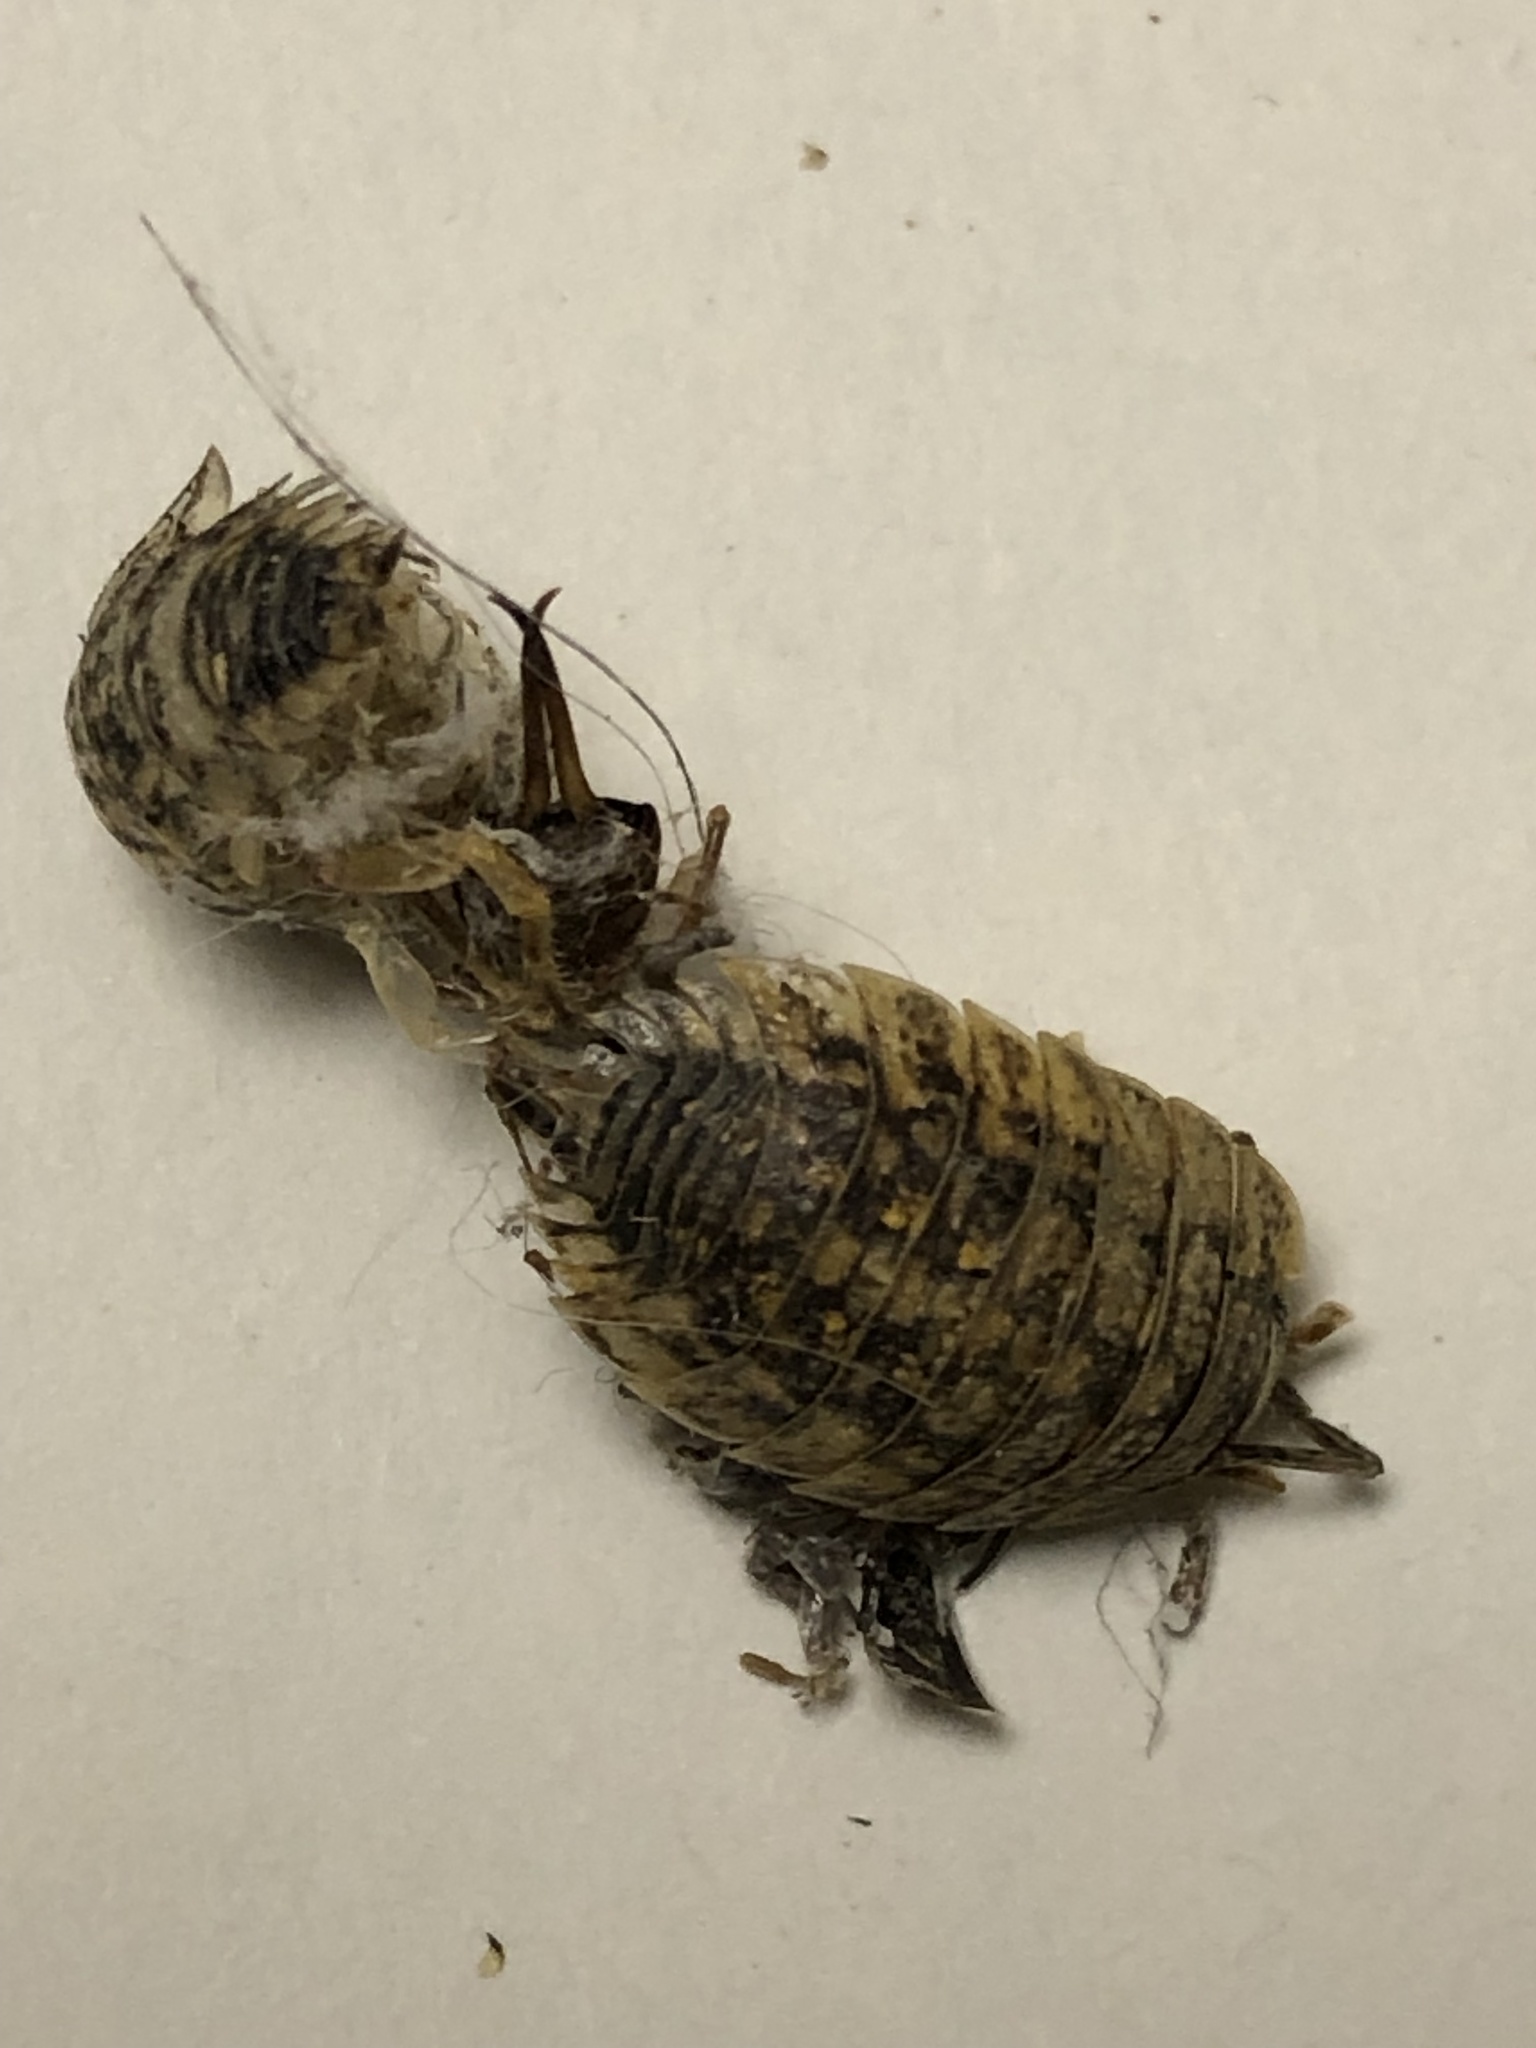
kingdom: Animalia
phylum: Arthropoda
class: Malacostraca
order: Isopoda
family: Trachelipodidae
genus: Trachelipus
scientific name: Trachelipus rathkii
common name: Isopod
